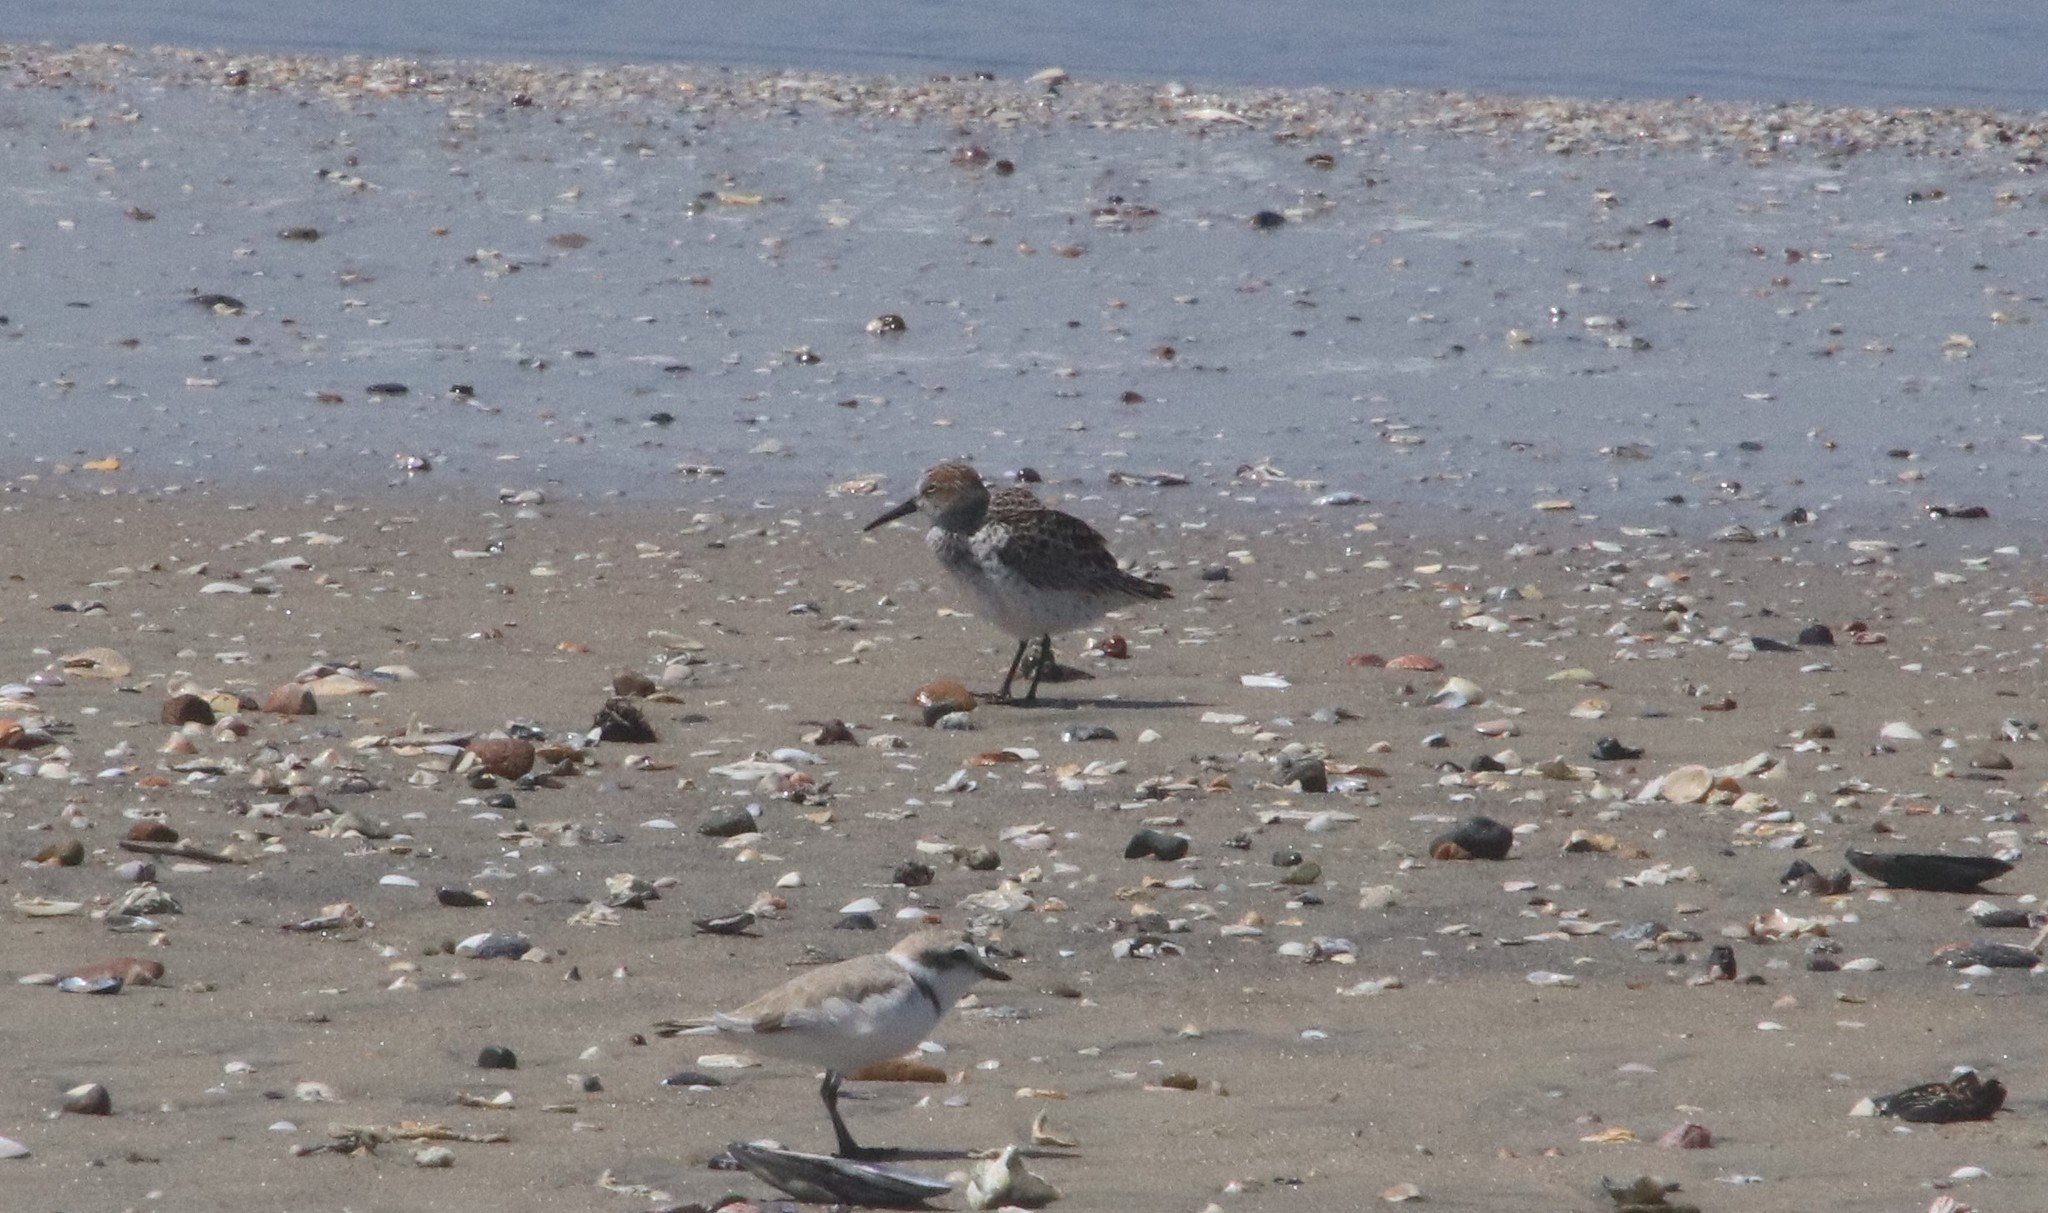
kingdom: Animalia
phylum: Chordata
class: Aves
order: Charadriiformes
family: Scolopacidae
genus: Calidris
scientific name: Calidris mauri
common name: Western sandpiper
